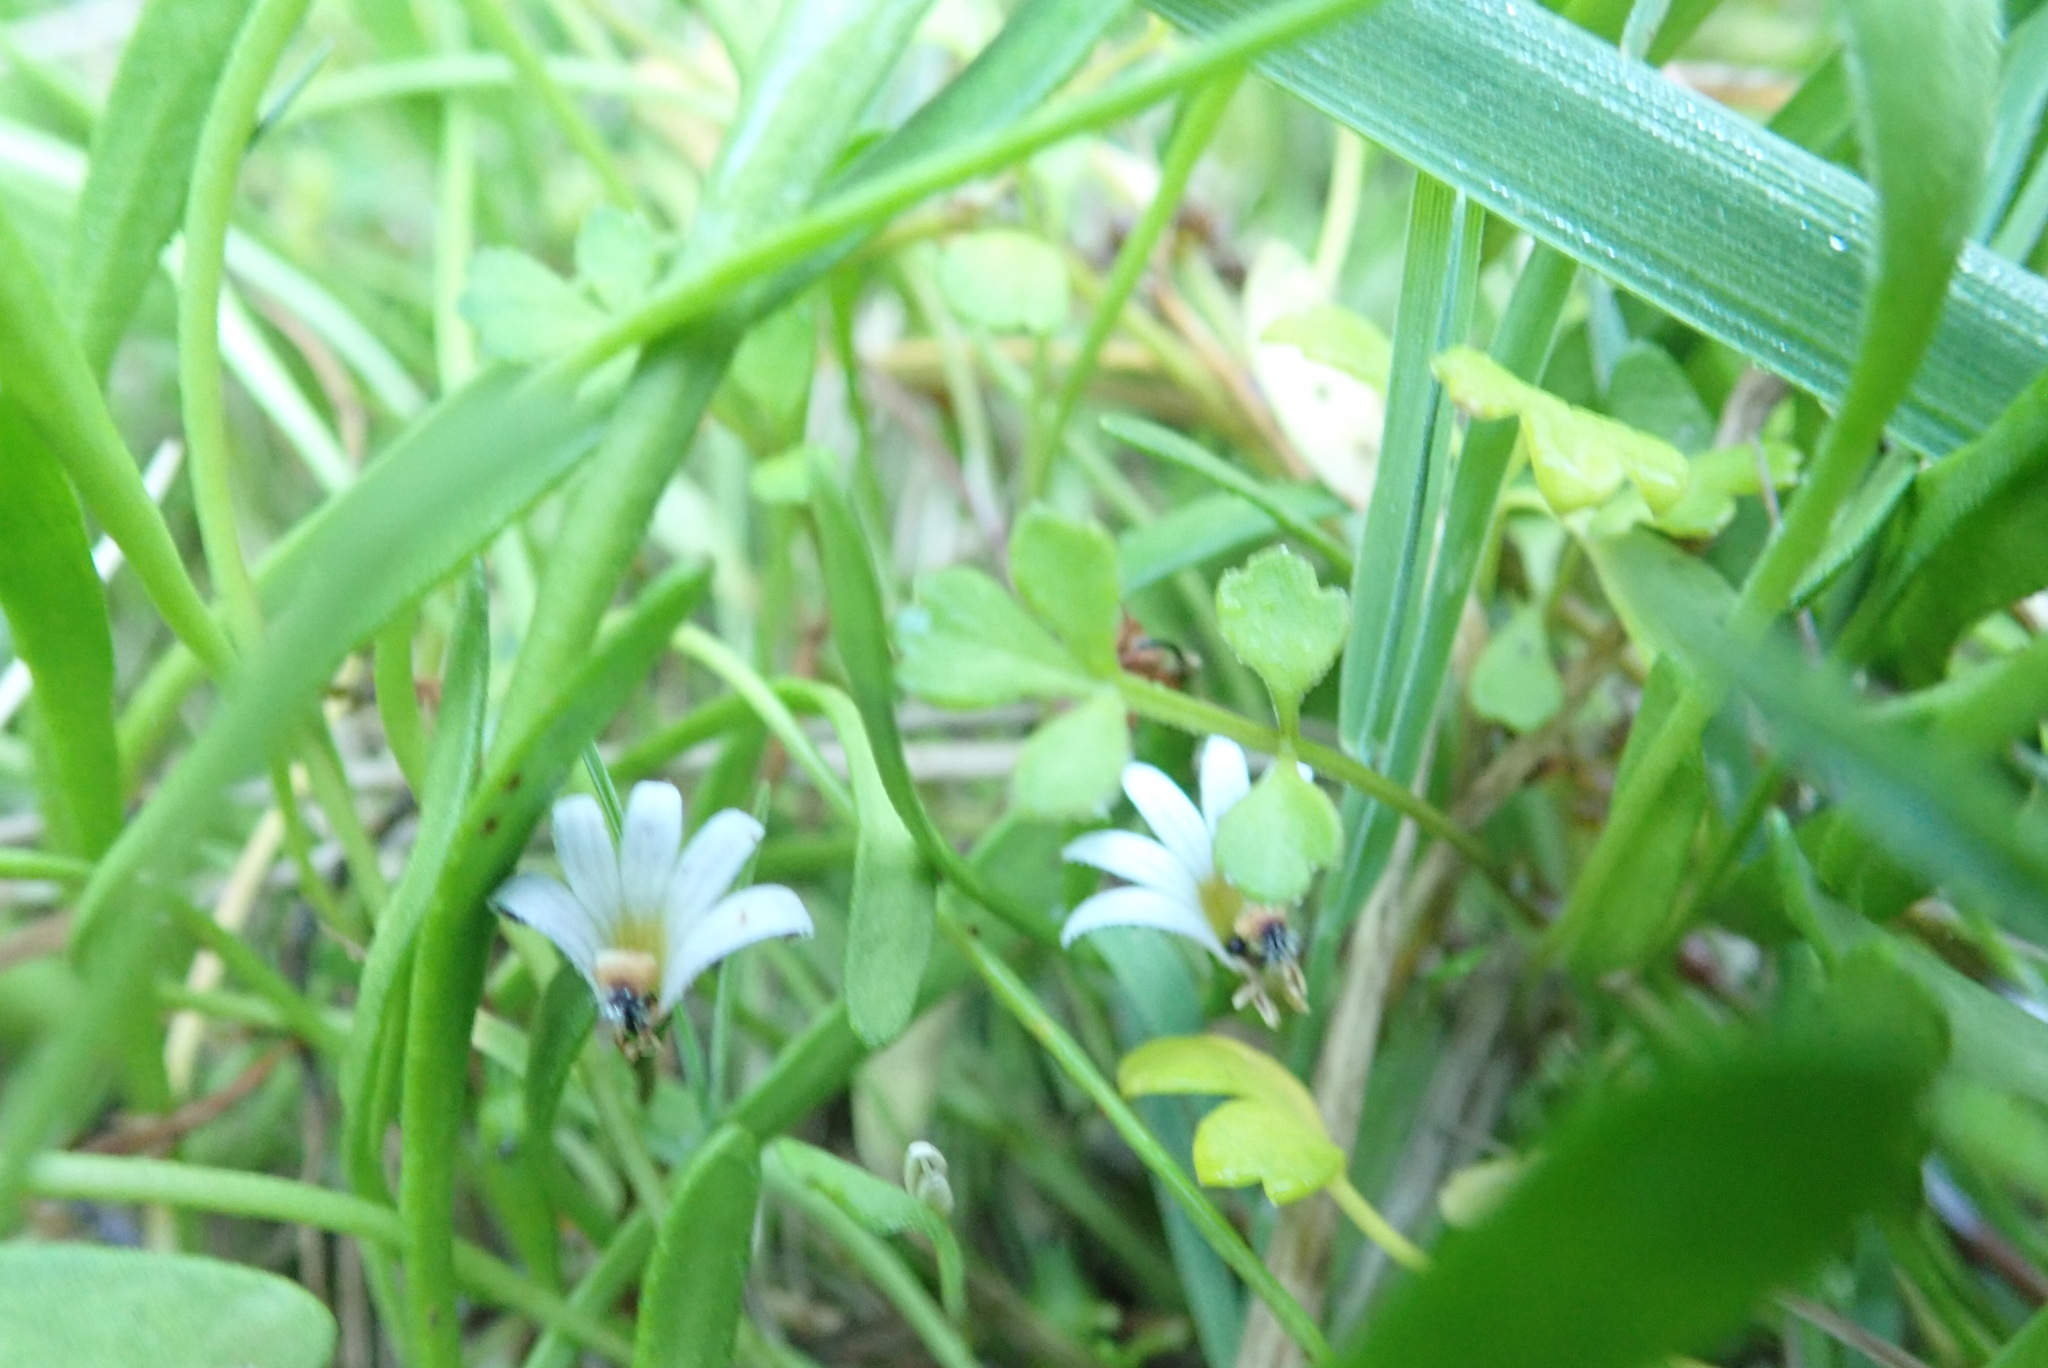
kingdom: Plantae
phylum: Tracheophyta
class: Magnoliopsida
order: Asterales
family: Goodeniaceae
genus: Goodenia
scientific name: Goodenia radicans
